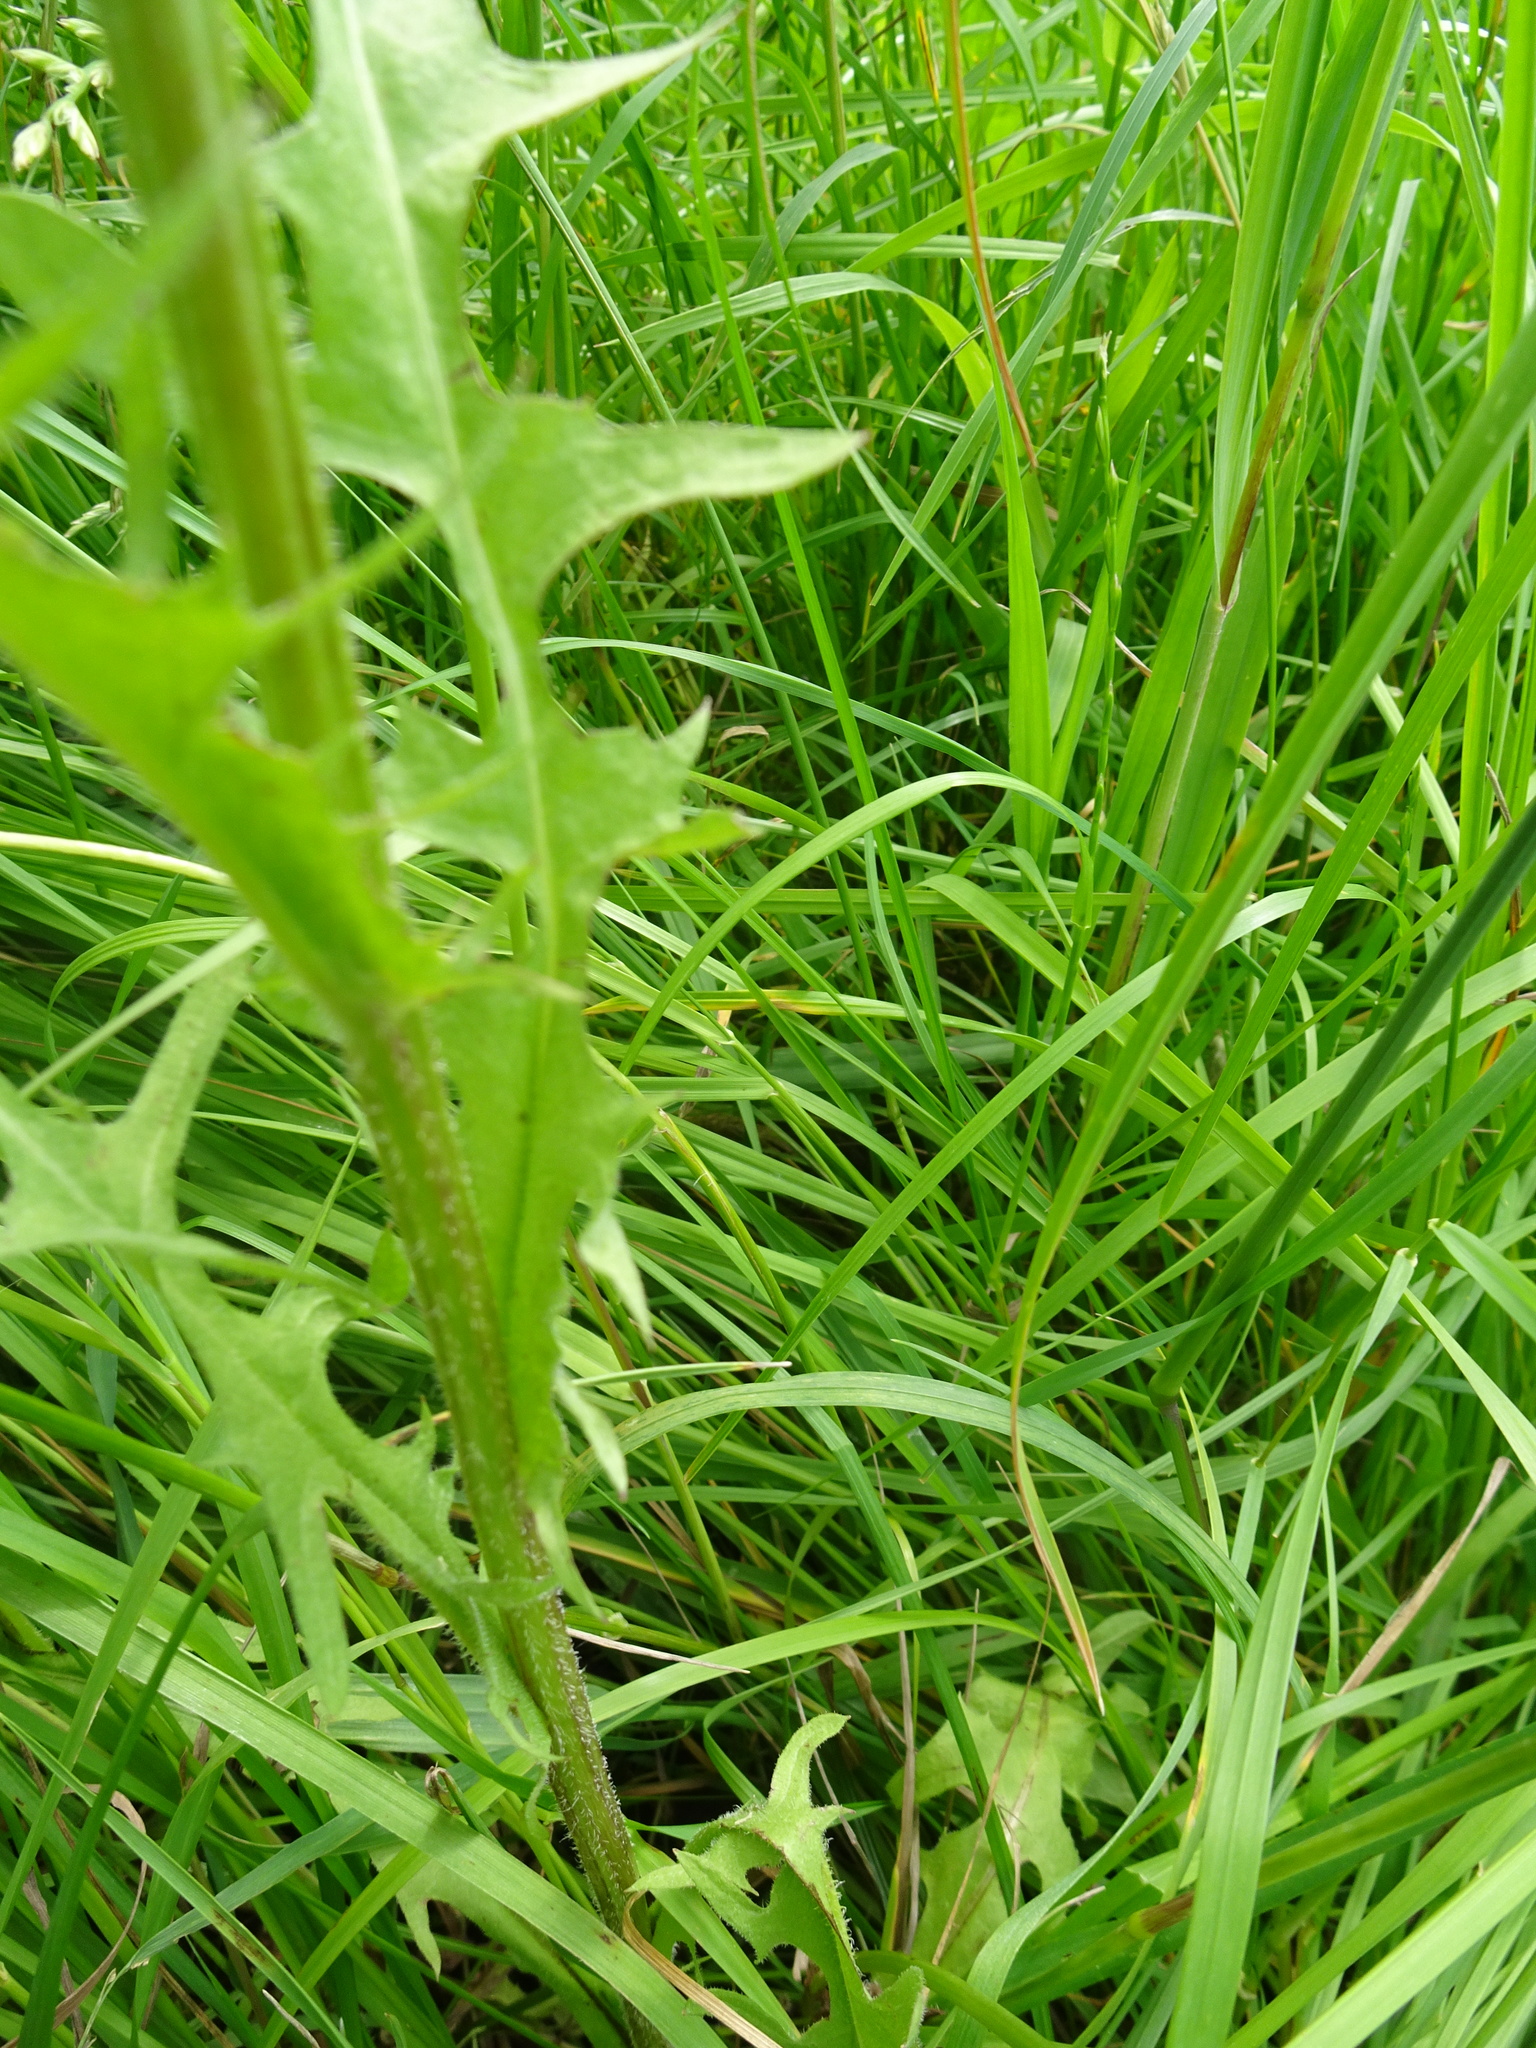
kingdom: Plantae
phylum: Tracheophyta
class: Magnoliopsida
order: Asterales
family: Asteraceae
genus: Crepis
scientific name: Crepis biennis
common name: Rough hawk's-beard
